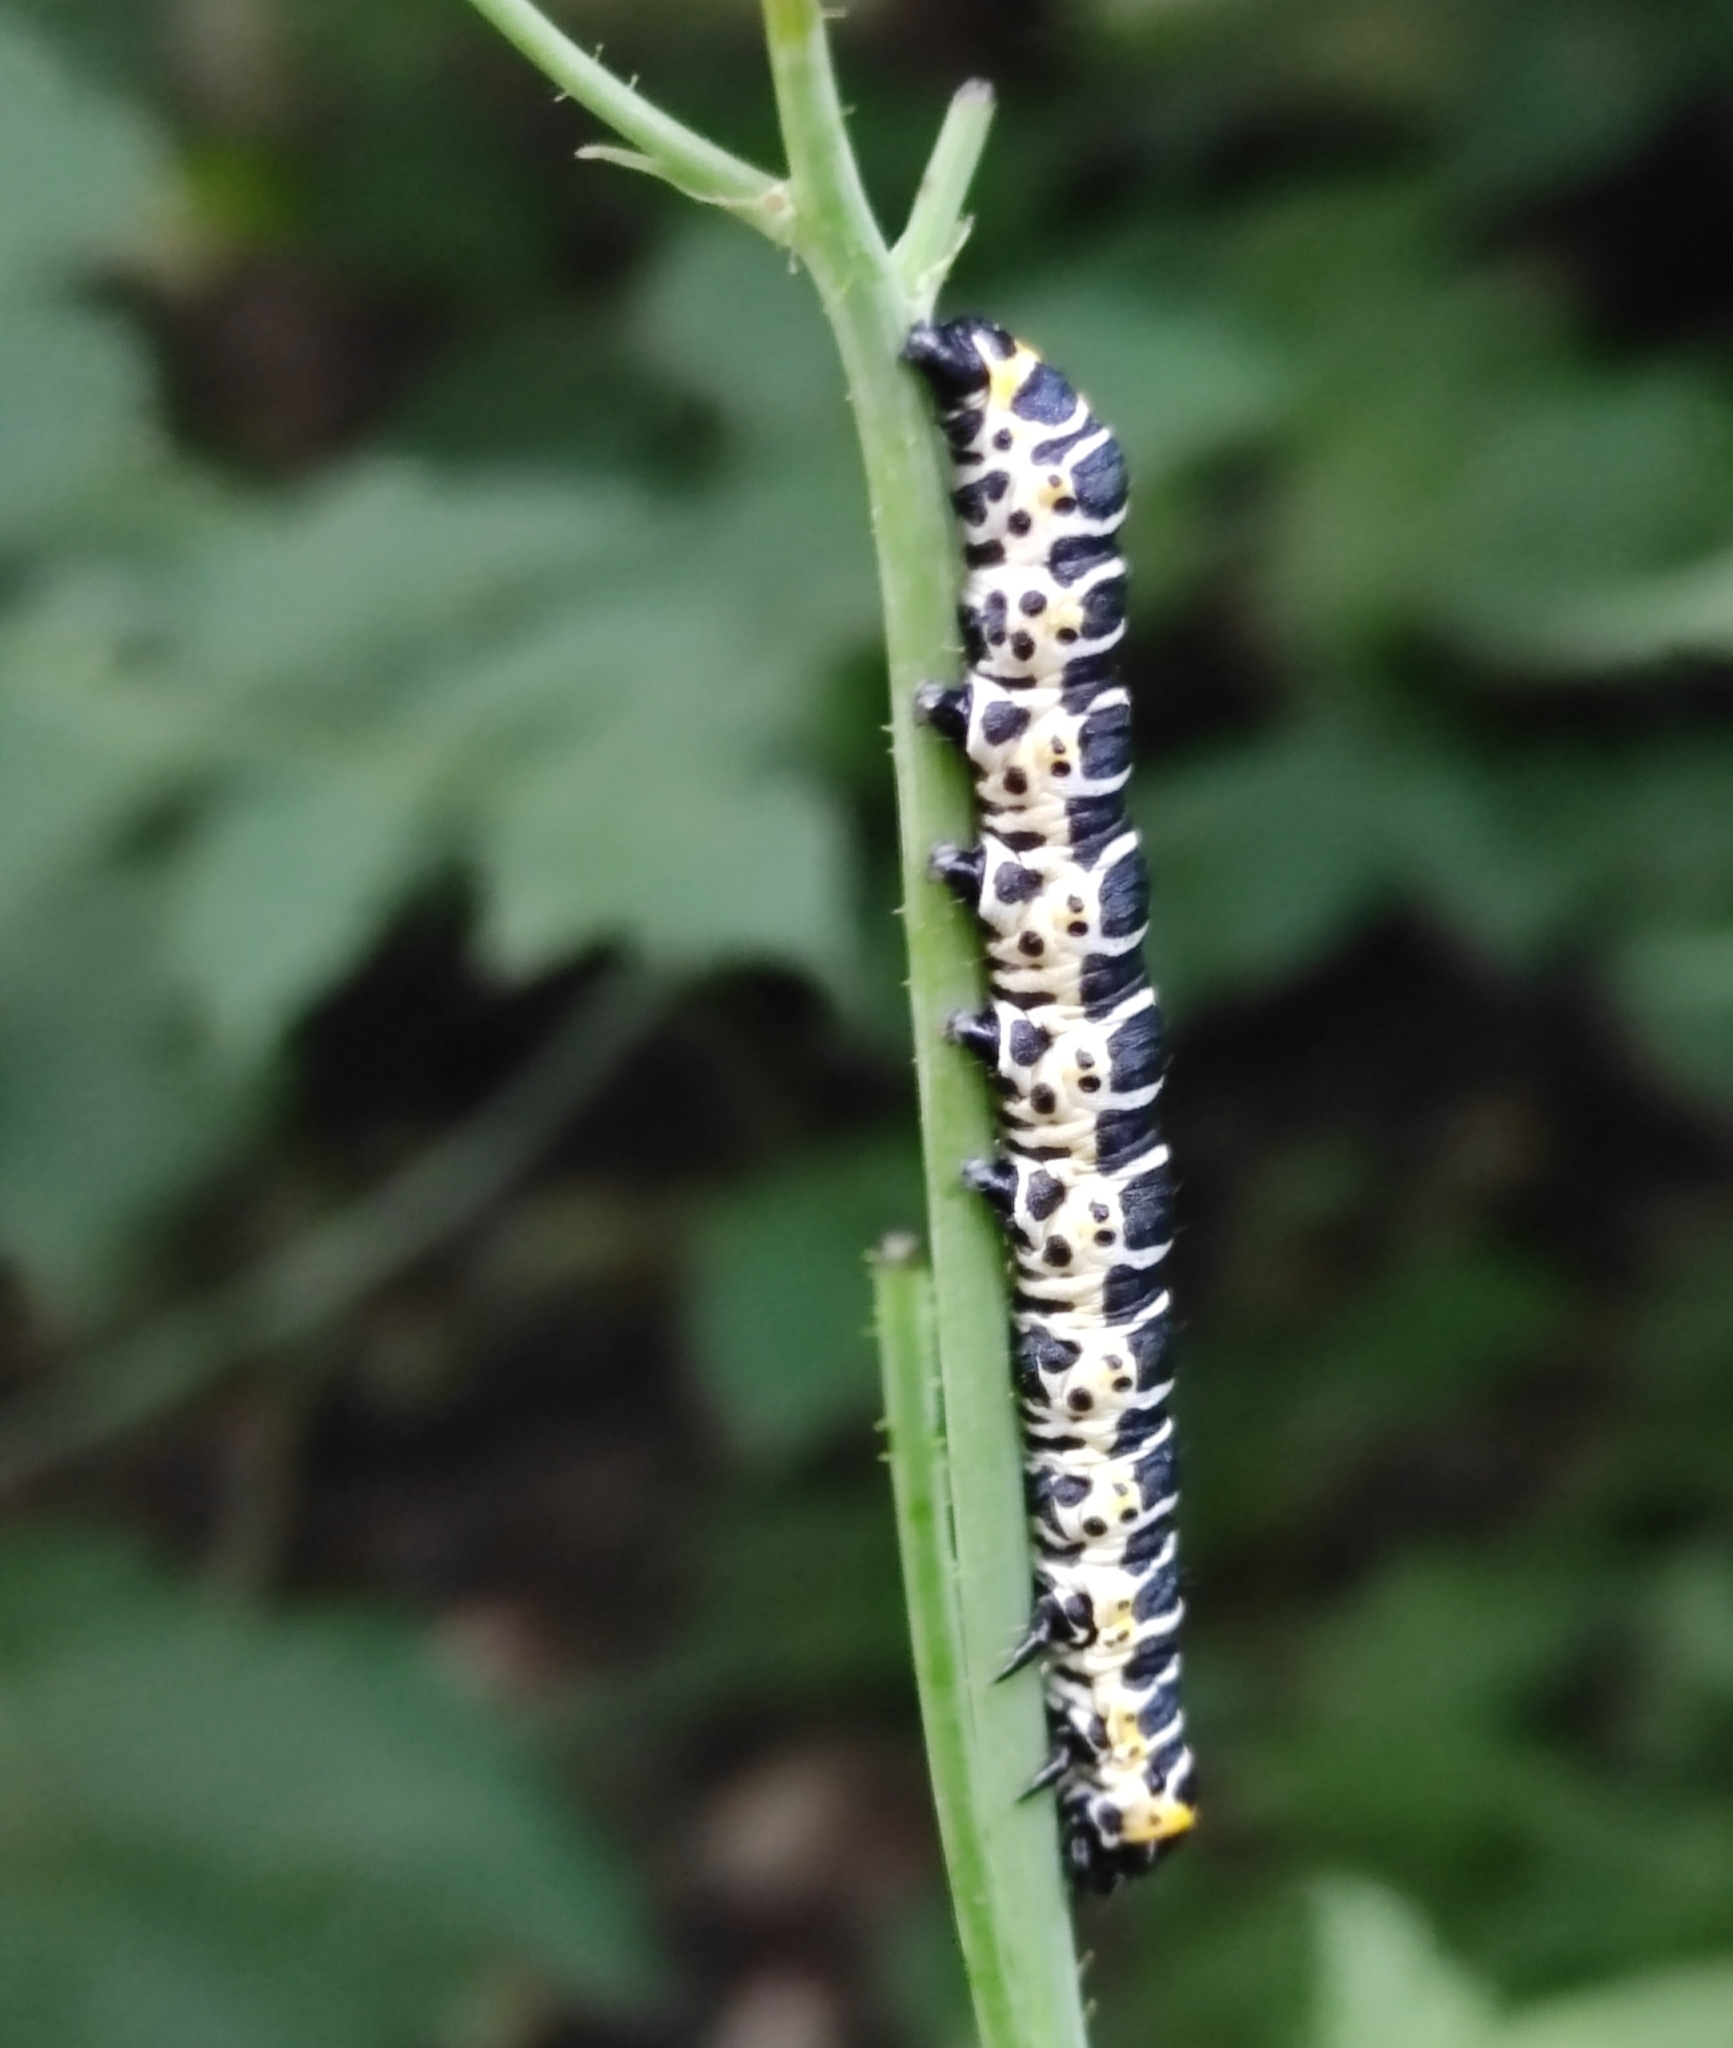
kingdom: Animalia
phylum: Arthropoda
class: Insecta
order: Lepidoptera
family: Noctuidae
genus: Cucullia
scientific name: Cucullia pustulata
